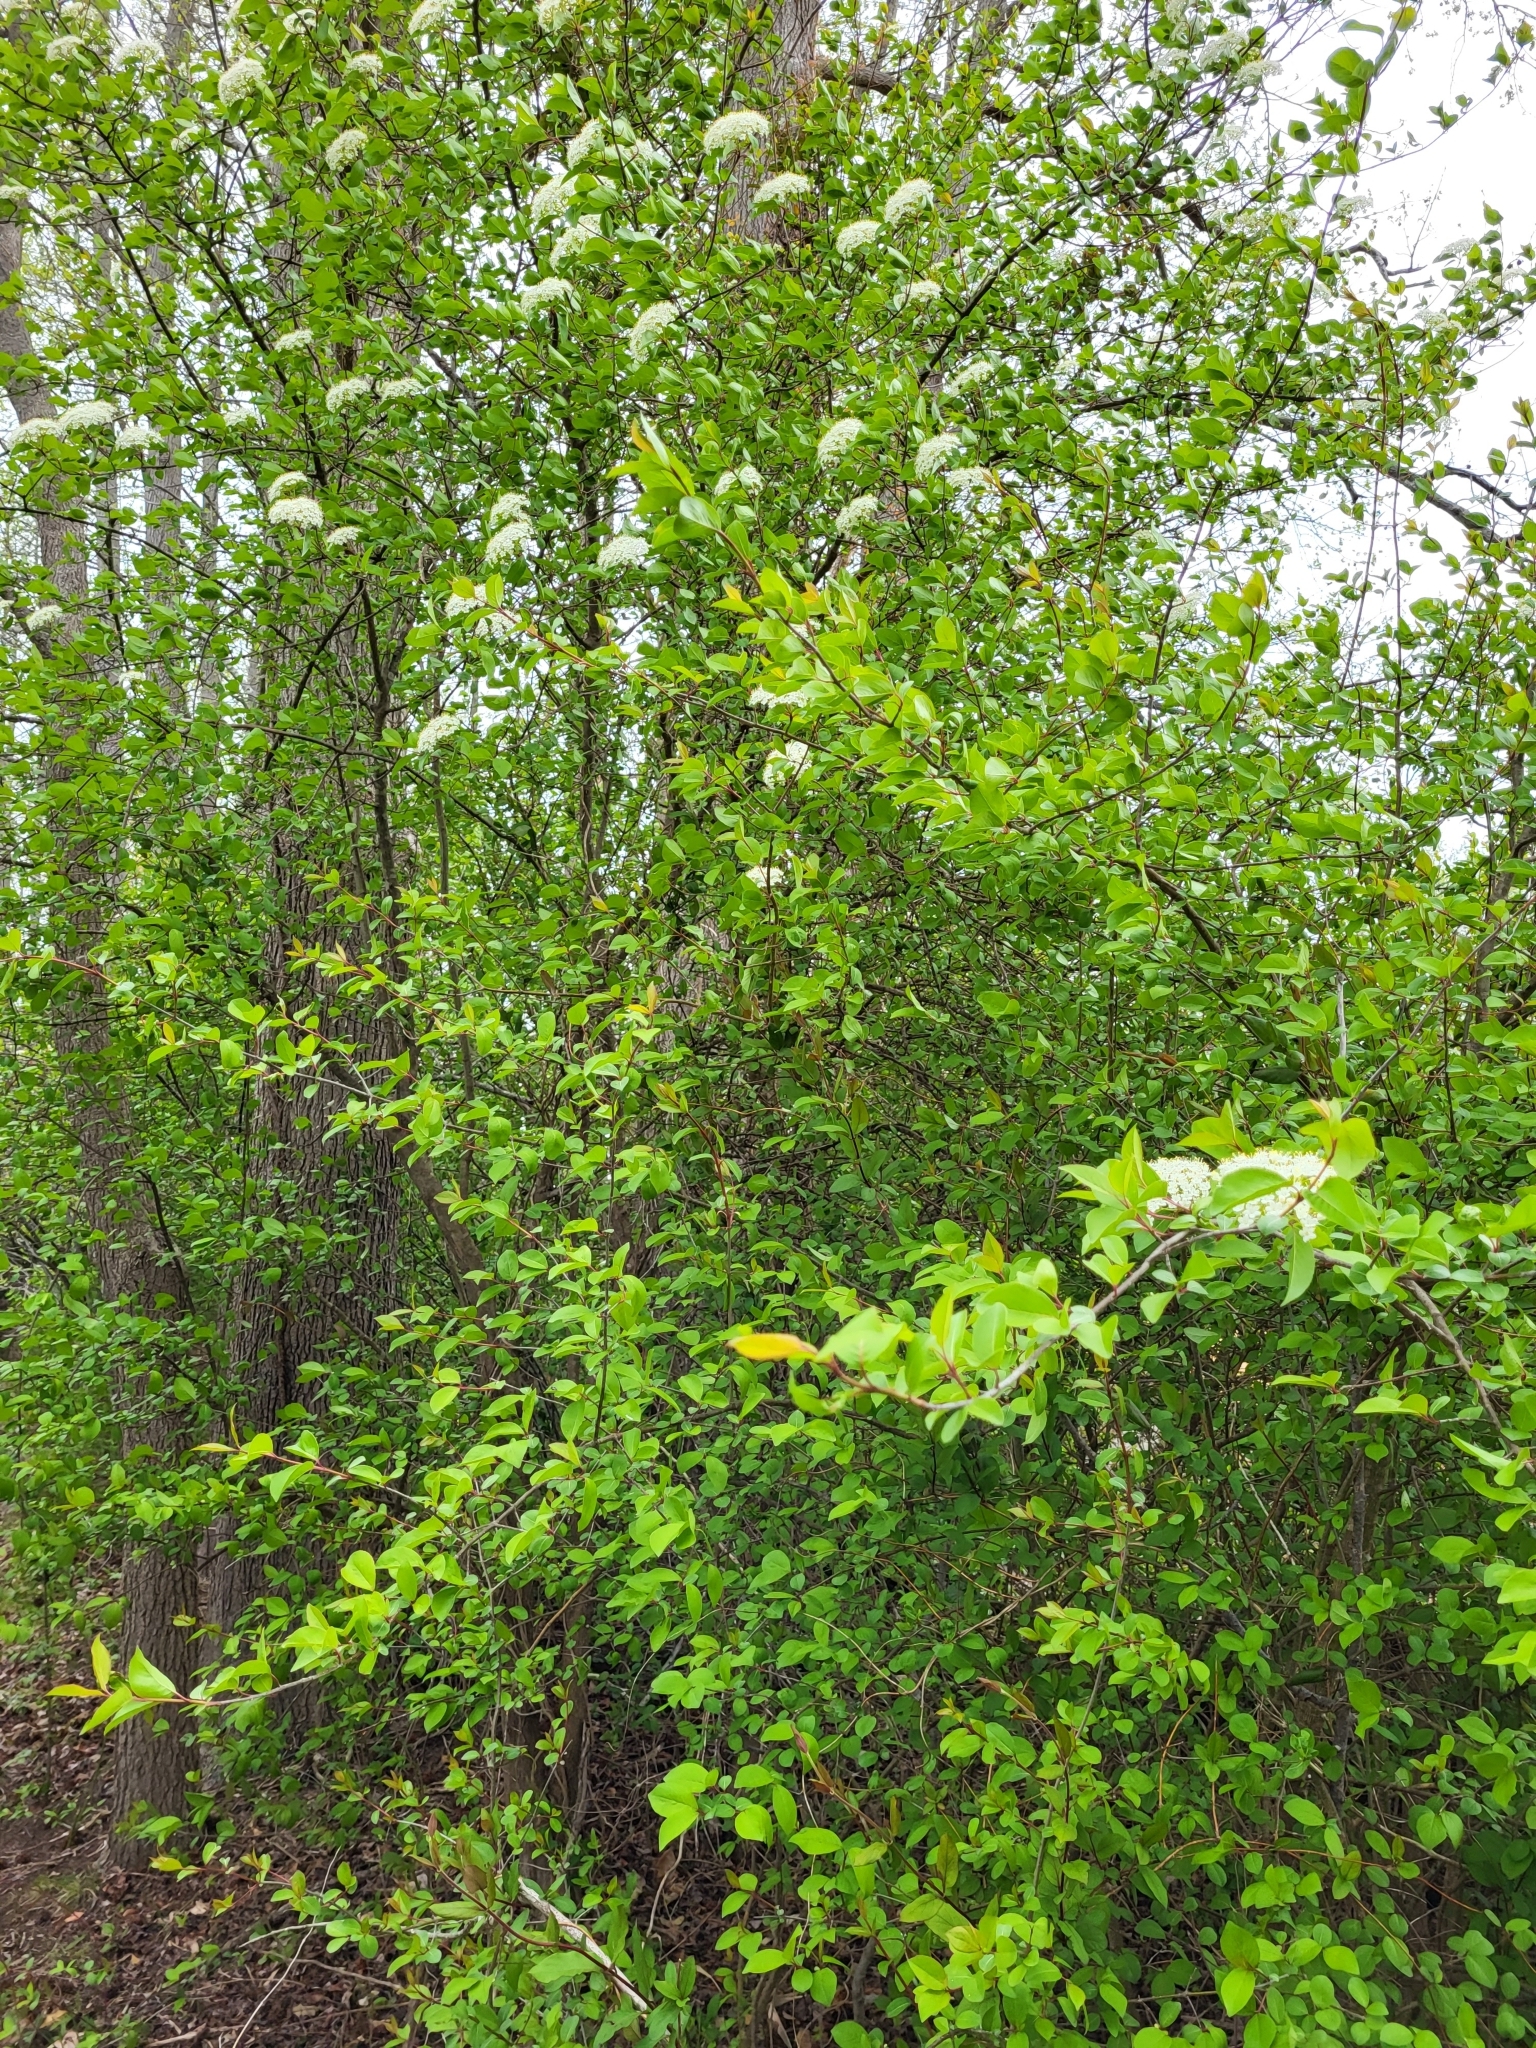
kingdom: Plantae
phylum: Tracheophyta
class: Magnoliopsida
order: Dipsacales
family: Viburnaceae
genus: Viburnum
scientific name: Viburnum prunifolium
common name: Black haw
